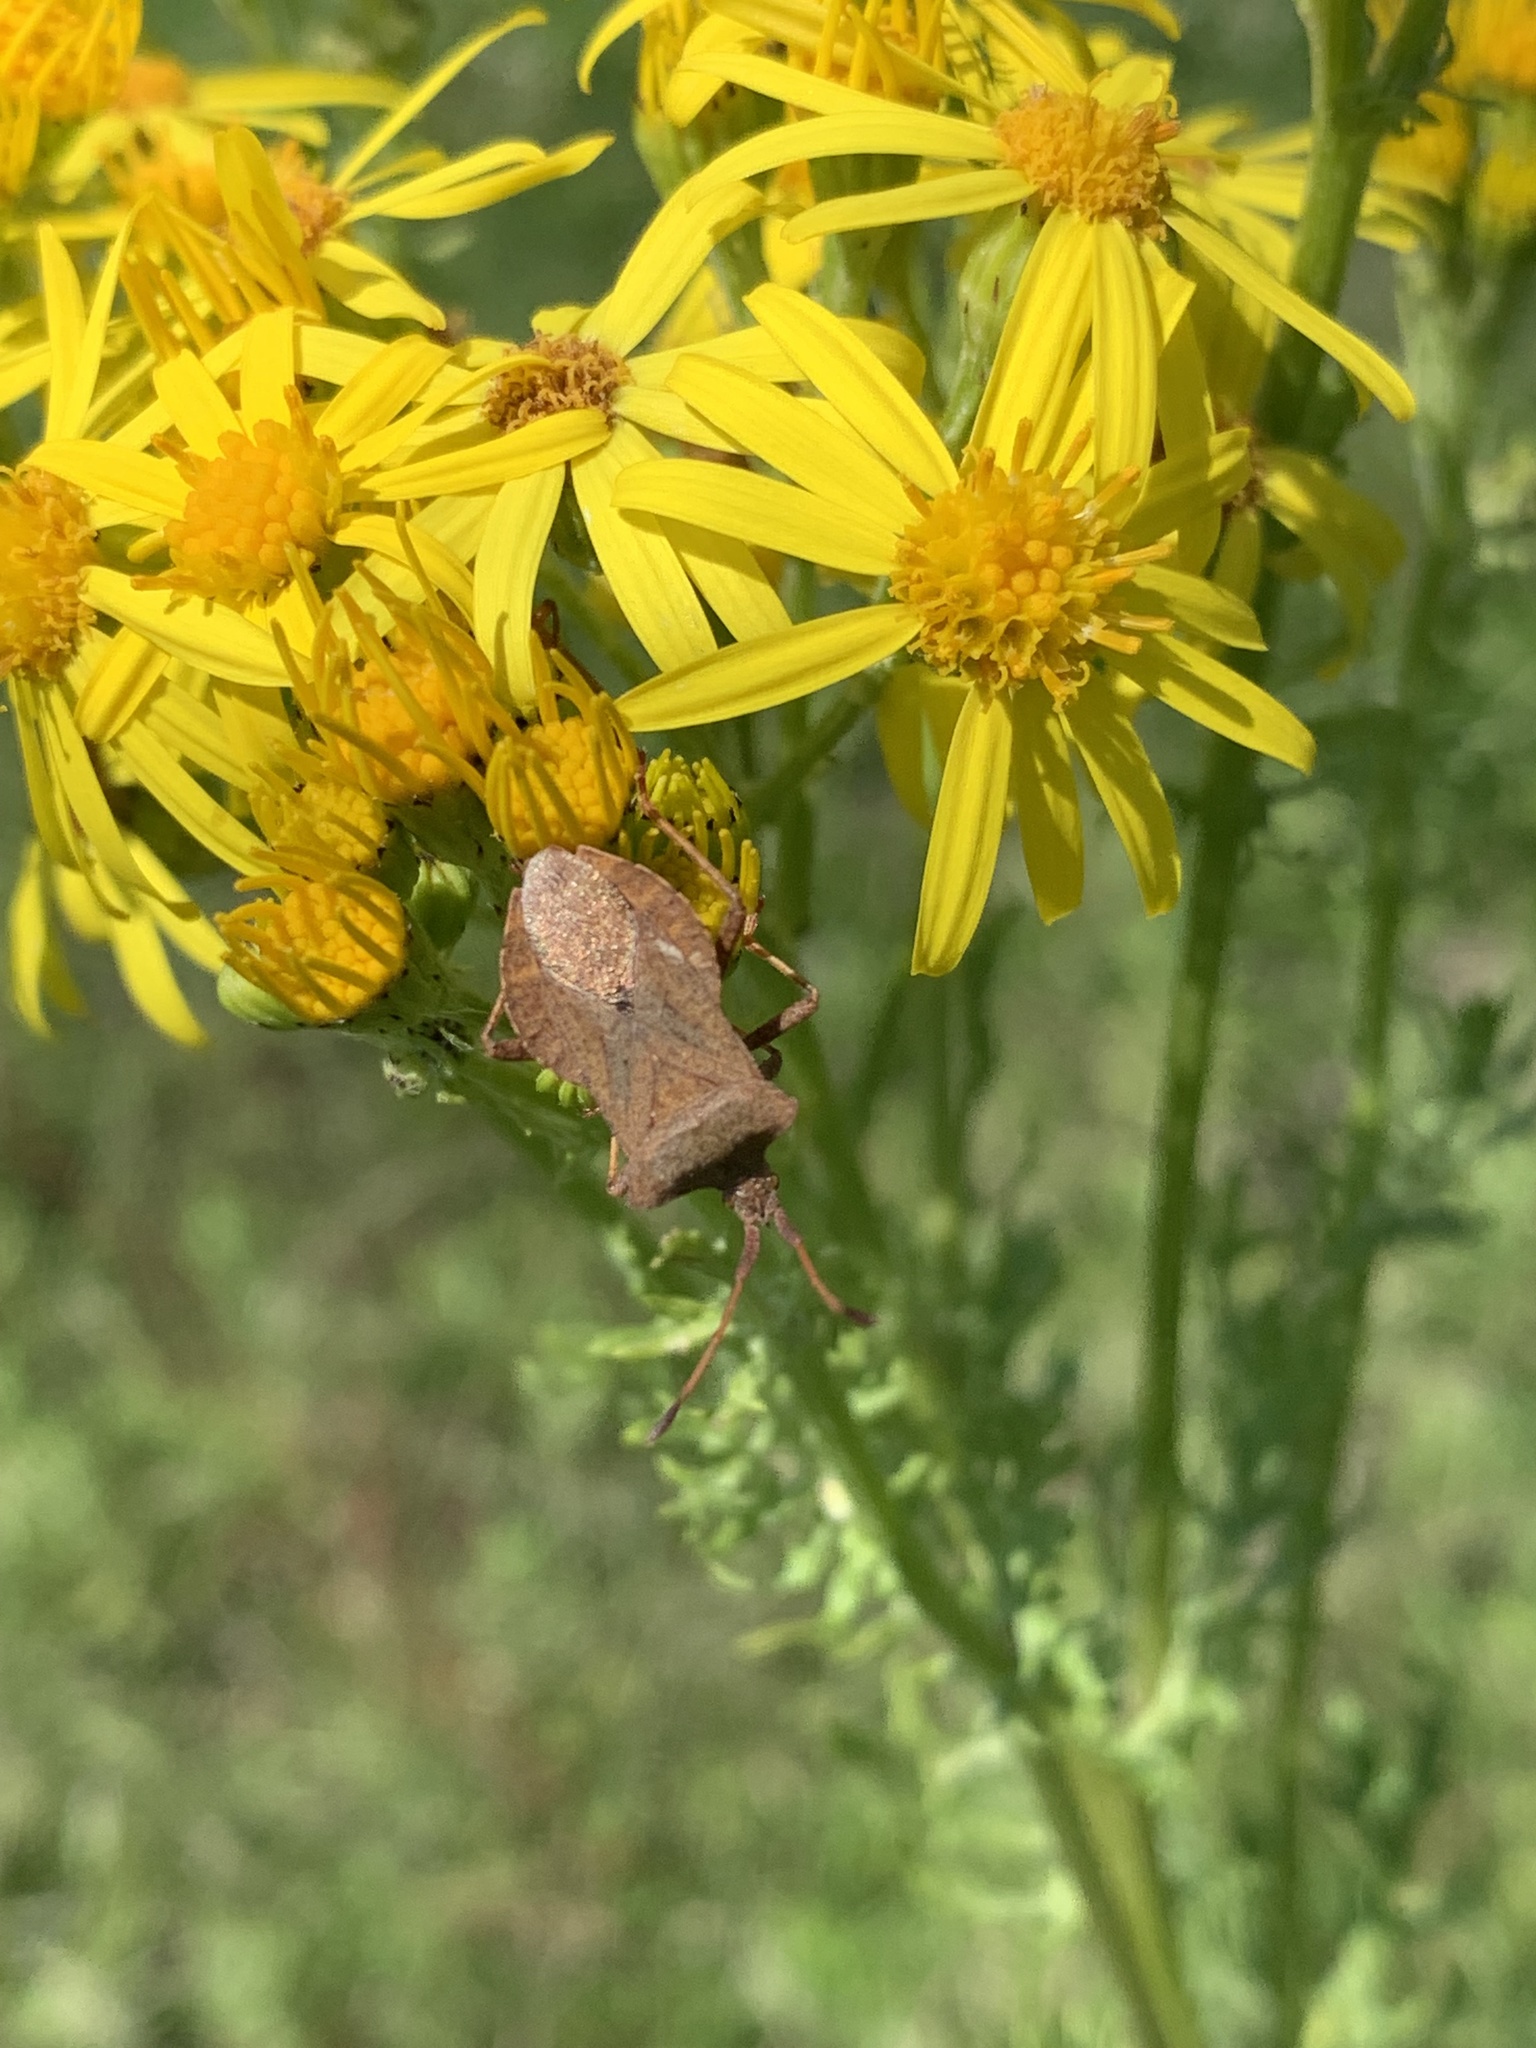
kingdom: Animalia
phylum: Arthropoda
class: Insecta
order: Hemiptera
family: Coreidae
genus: Coreus
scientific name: Coreus marginatus
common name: Dock bug
